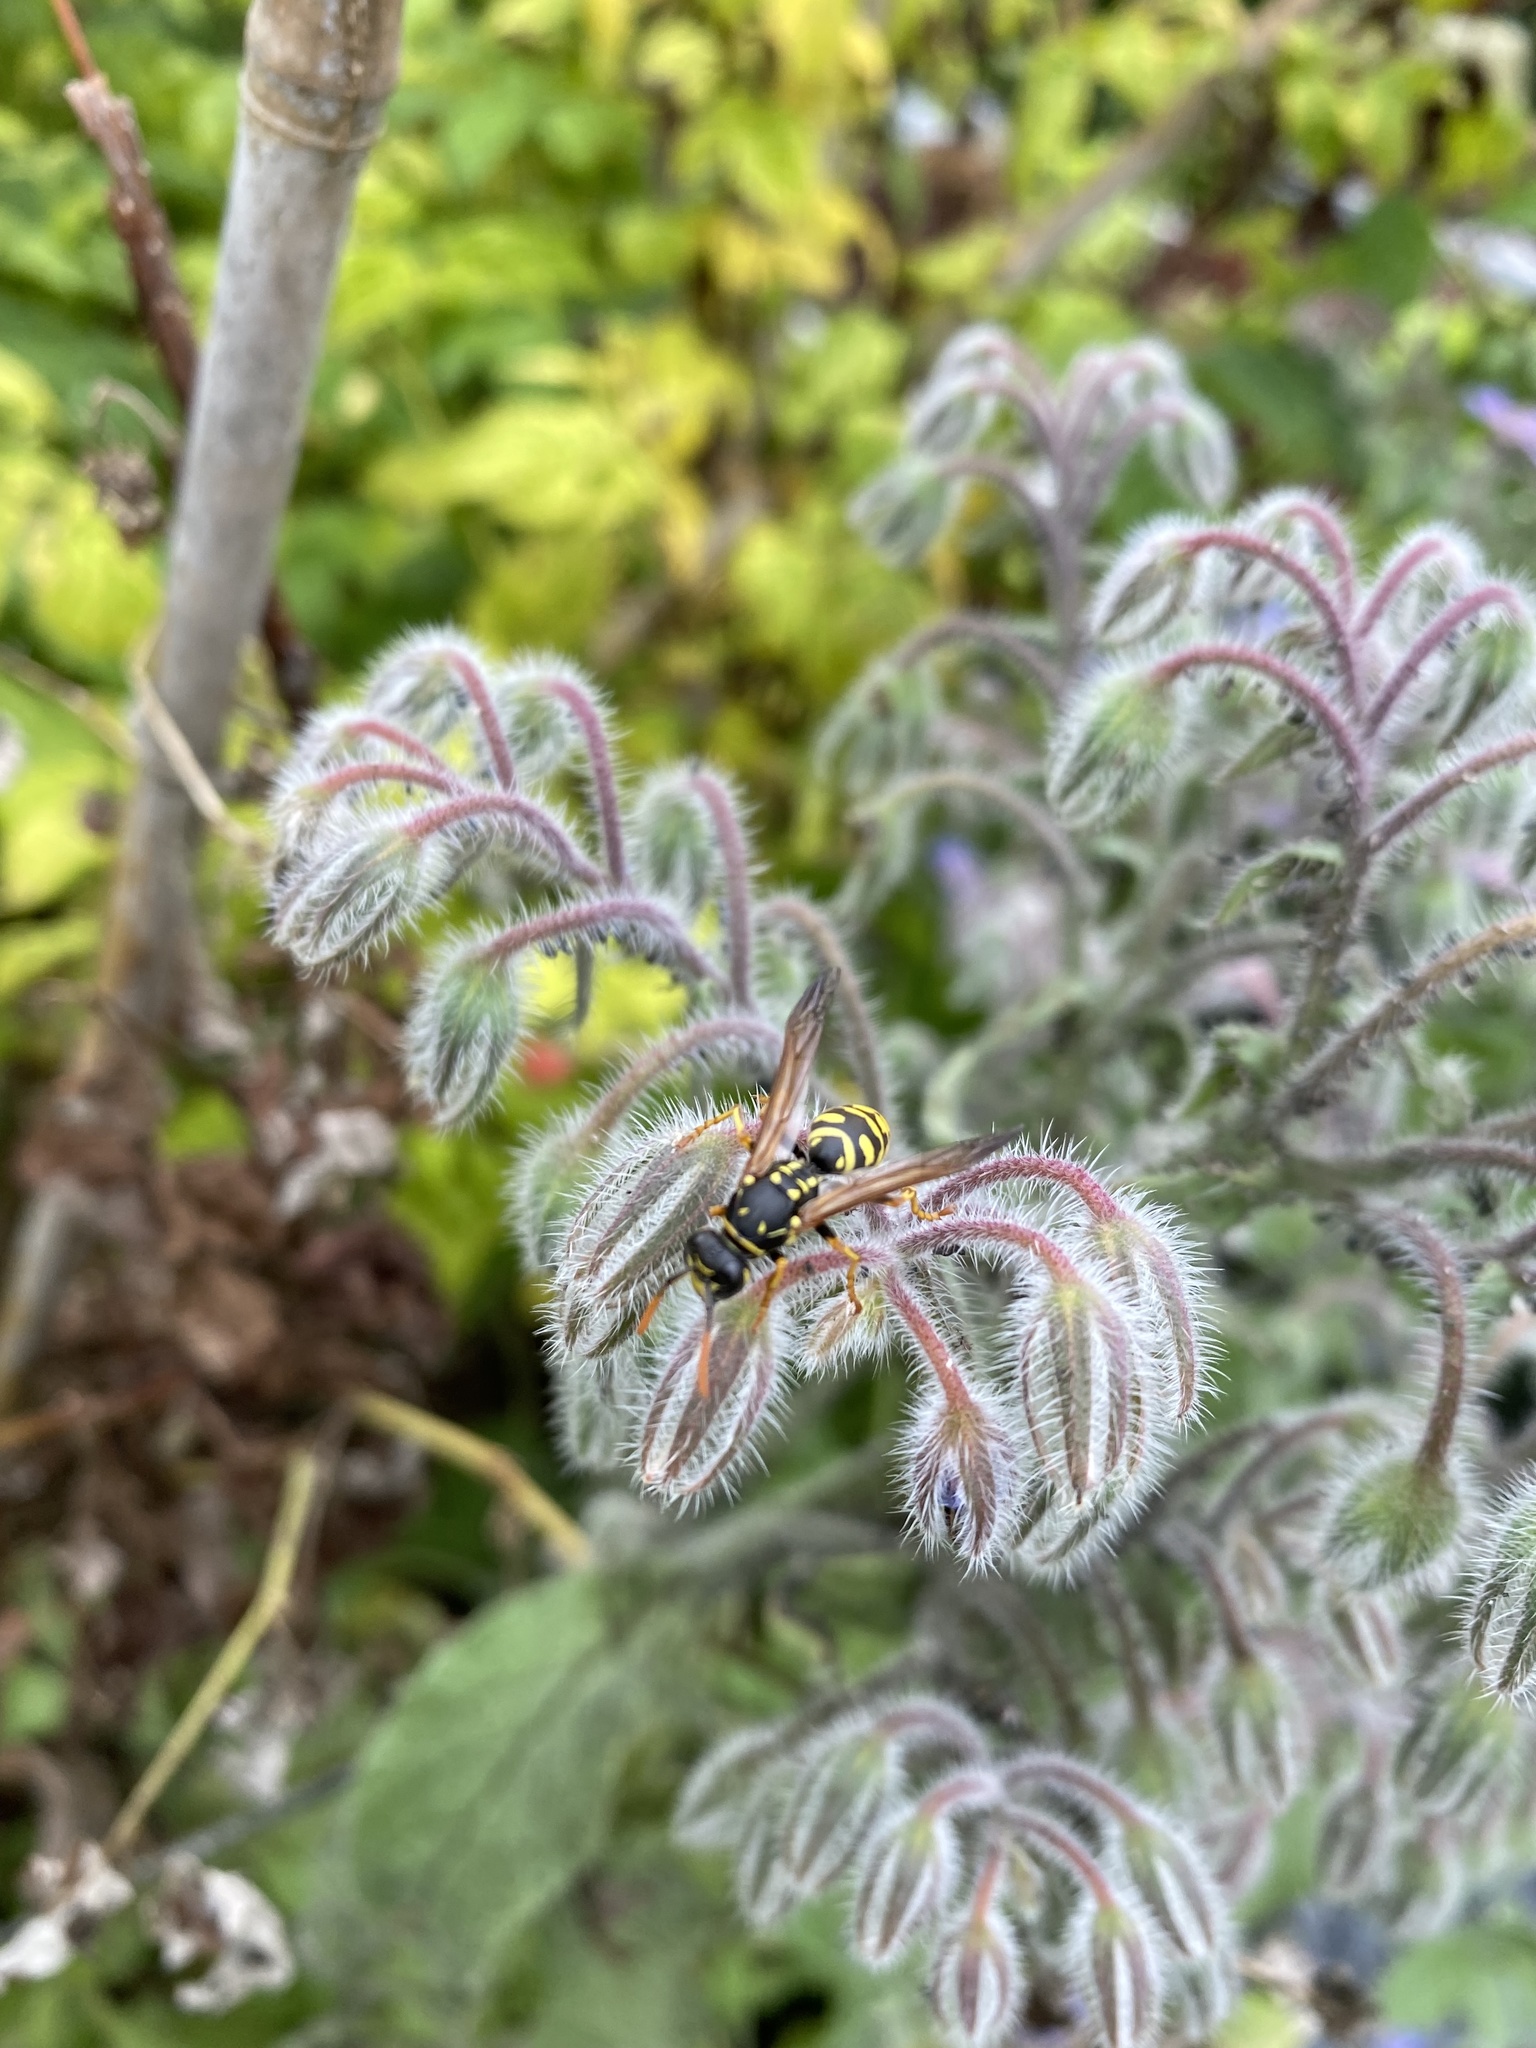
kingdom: Animalia
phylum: Arthropoda
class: Insecta
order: Hymenoptera
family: Eumenidae
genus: Polistes
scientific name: Polistes dominula
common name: Paper wasp
